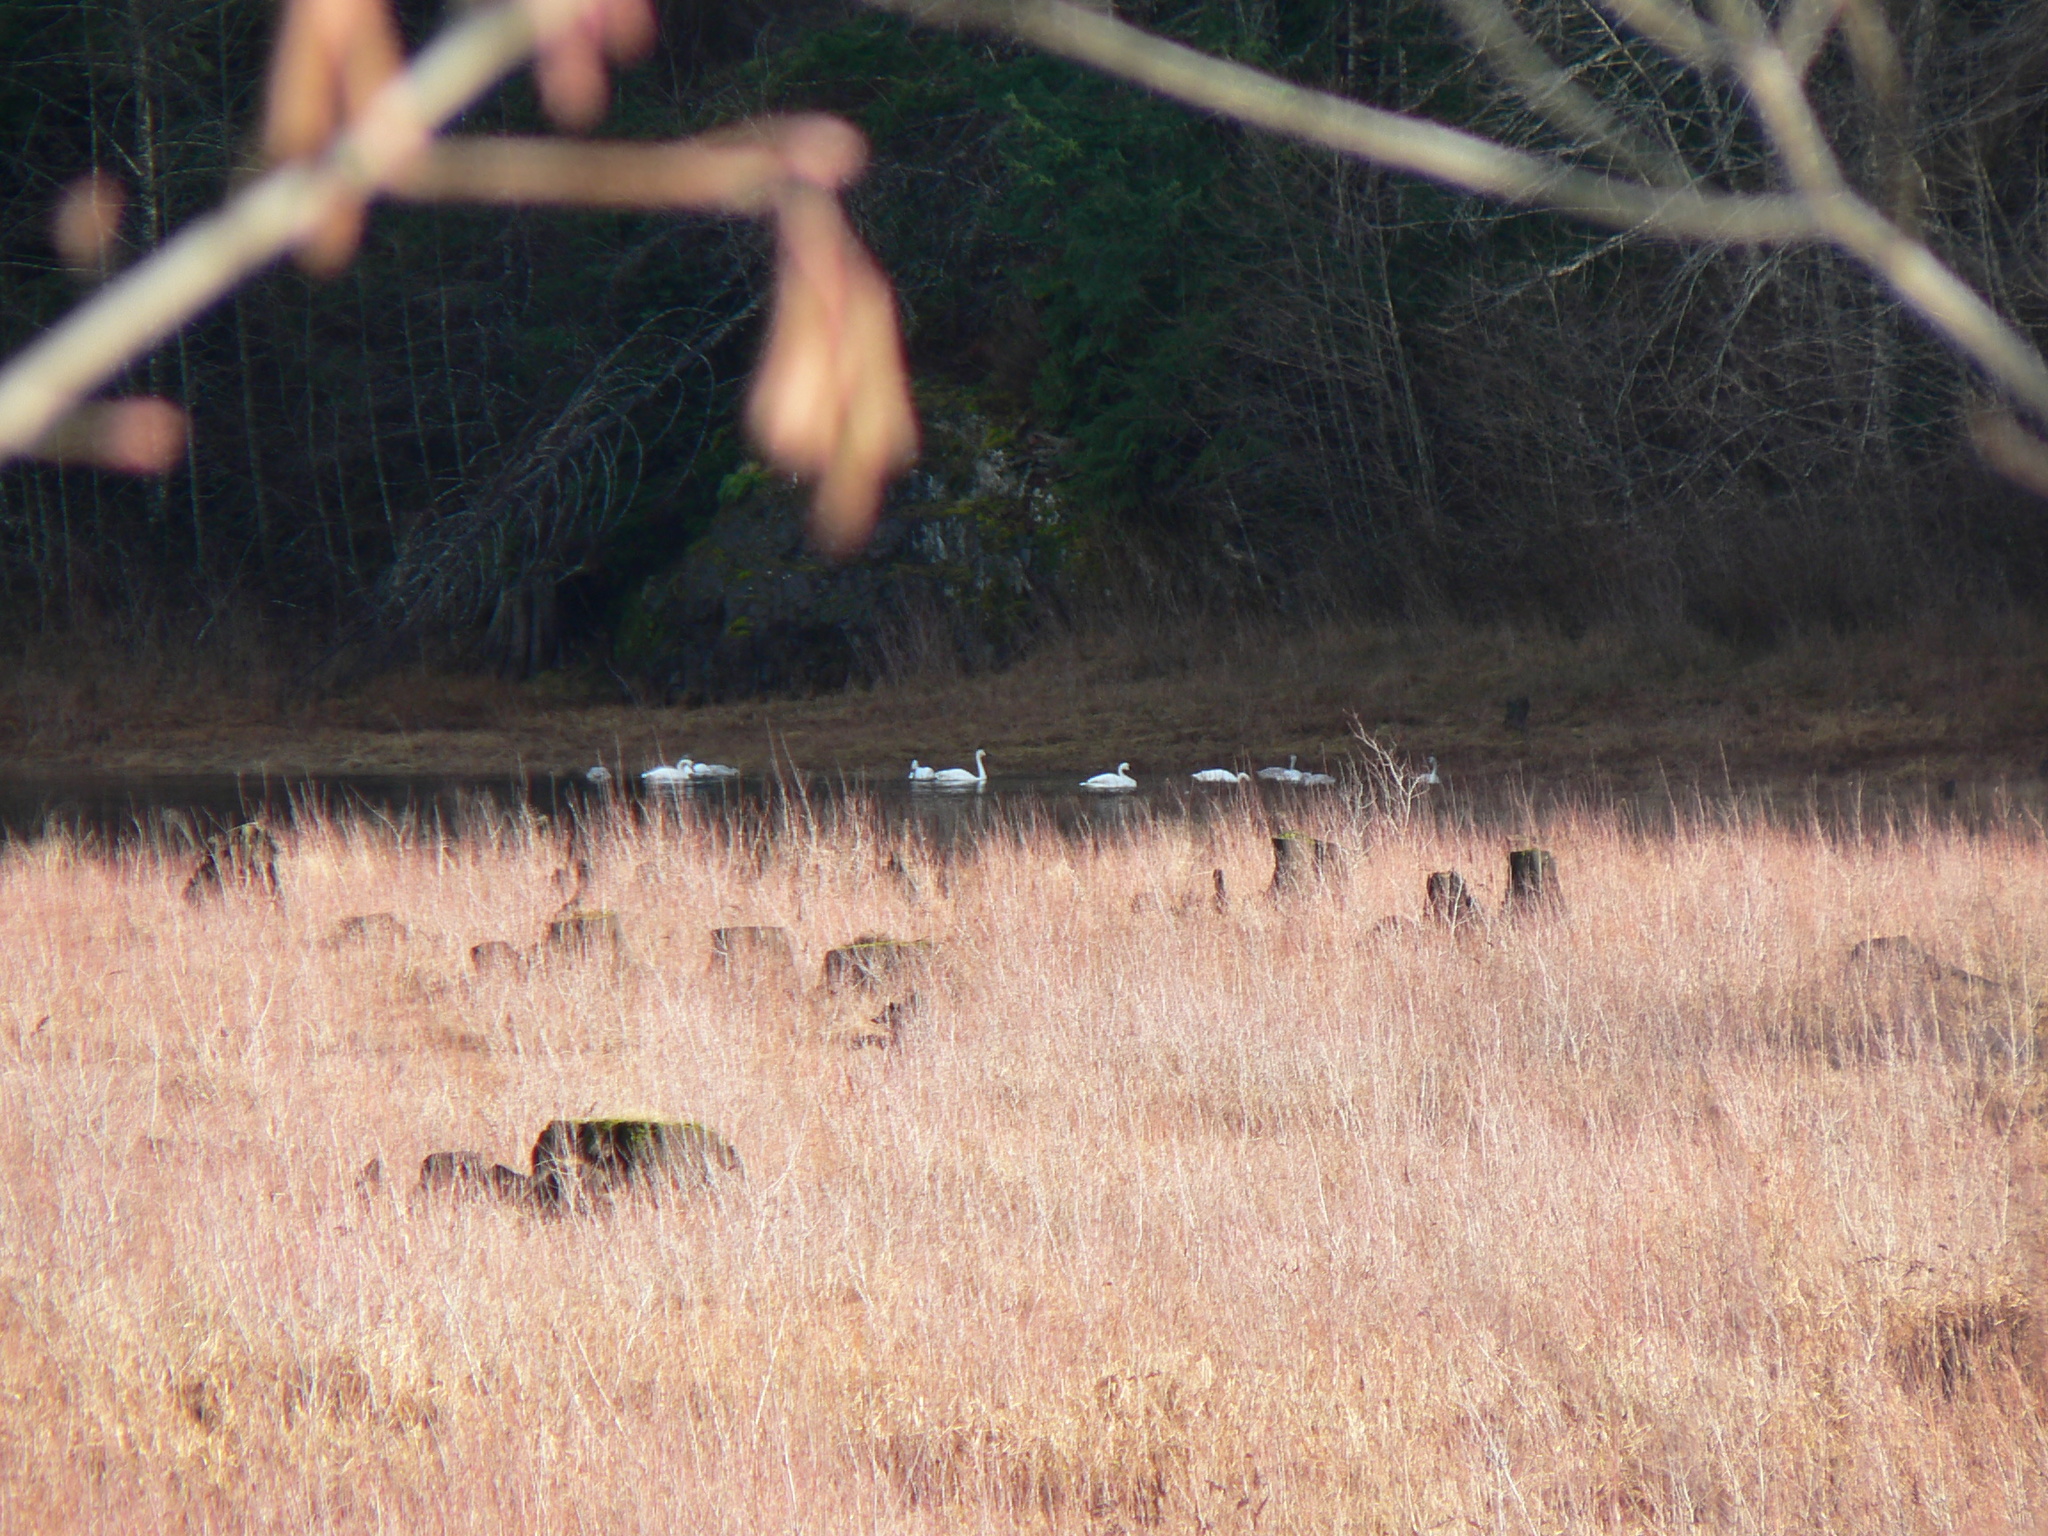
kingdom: Animalia
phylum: Chordata
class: Aves
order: Anseriformes
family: Anatidae
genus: Cygnus
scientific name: Cygnus buccinator
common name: Trumpeter swan
